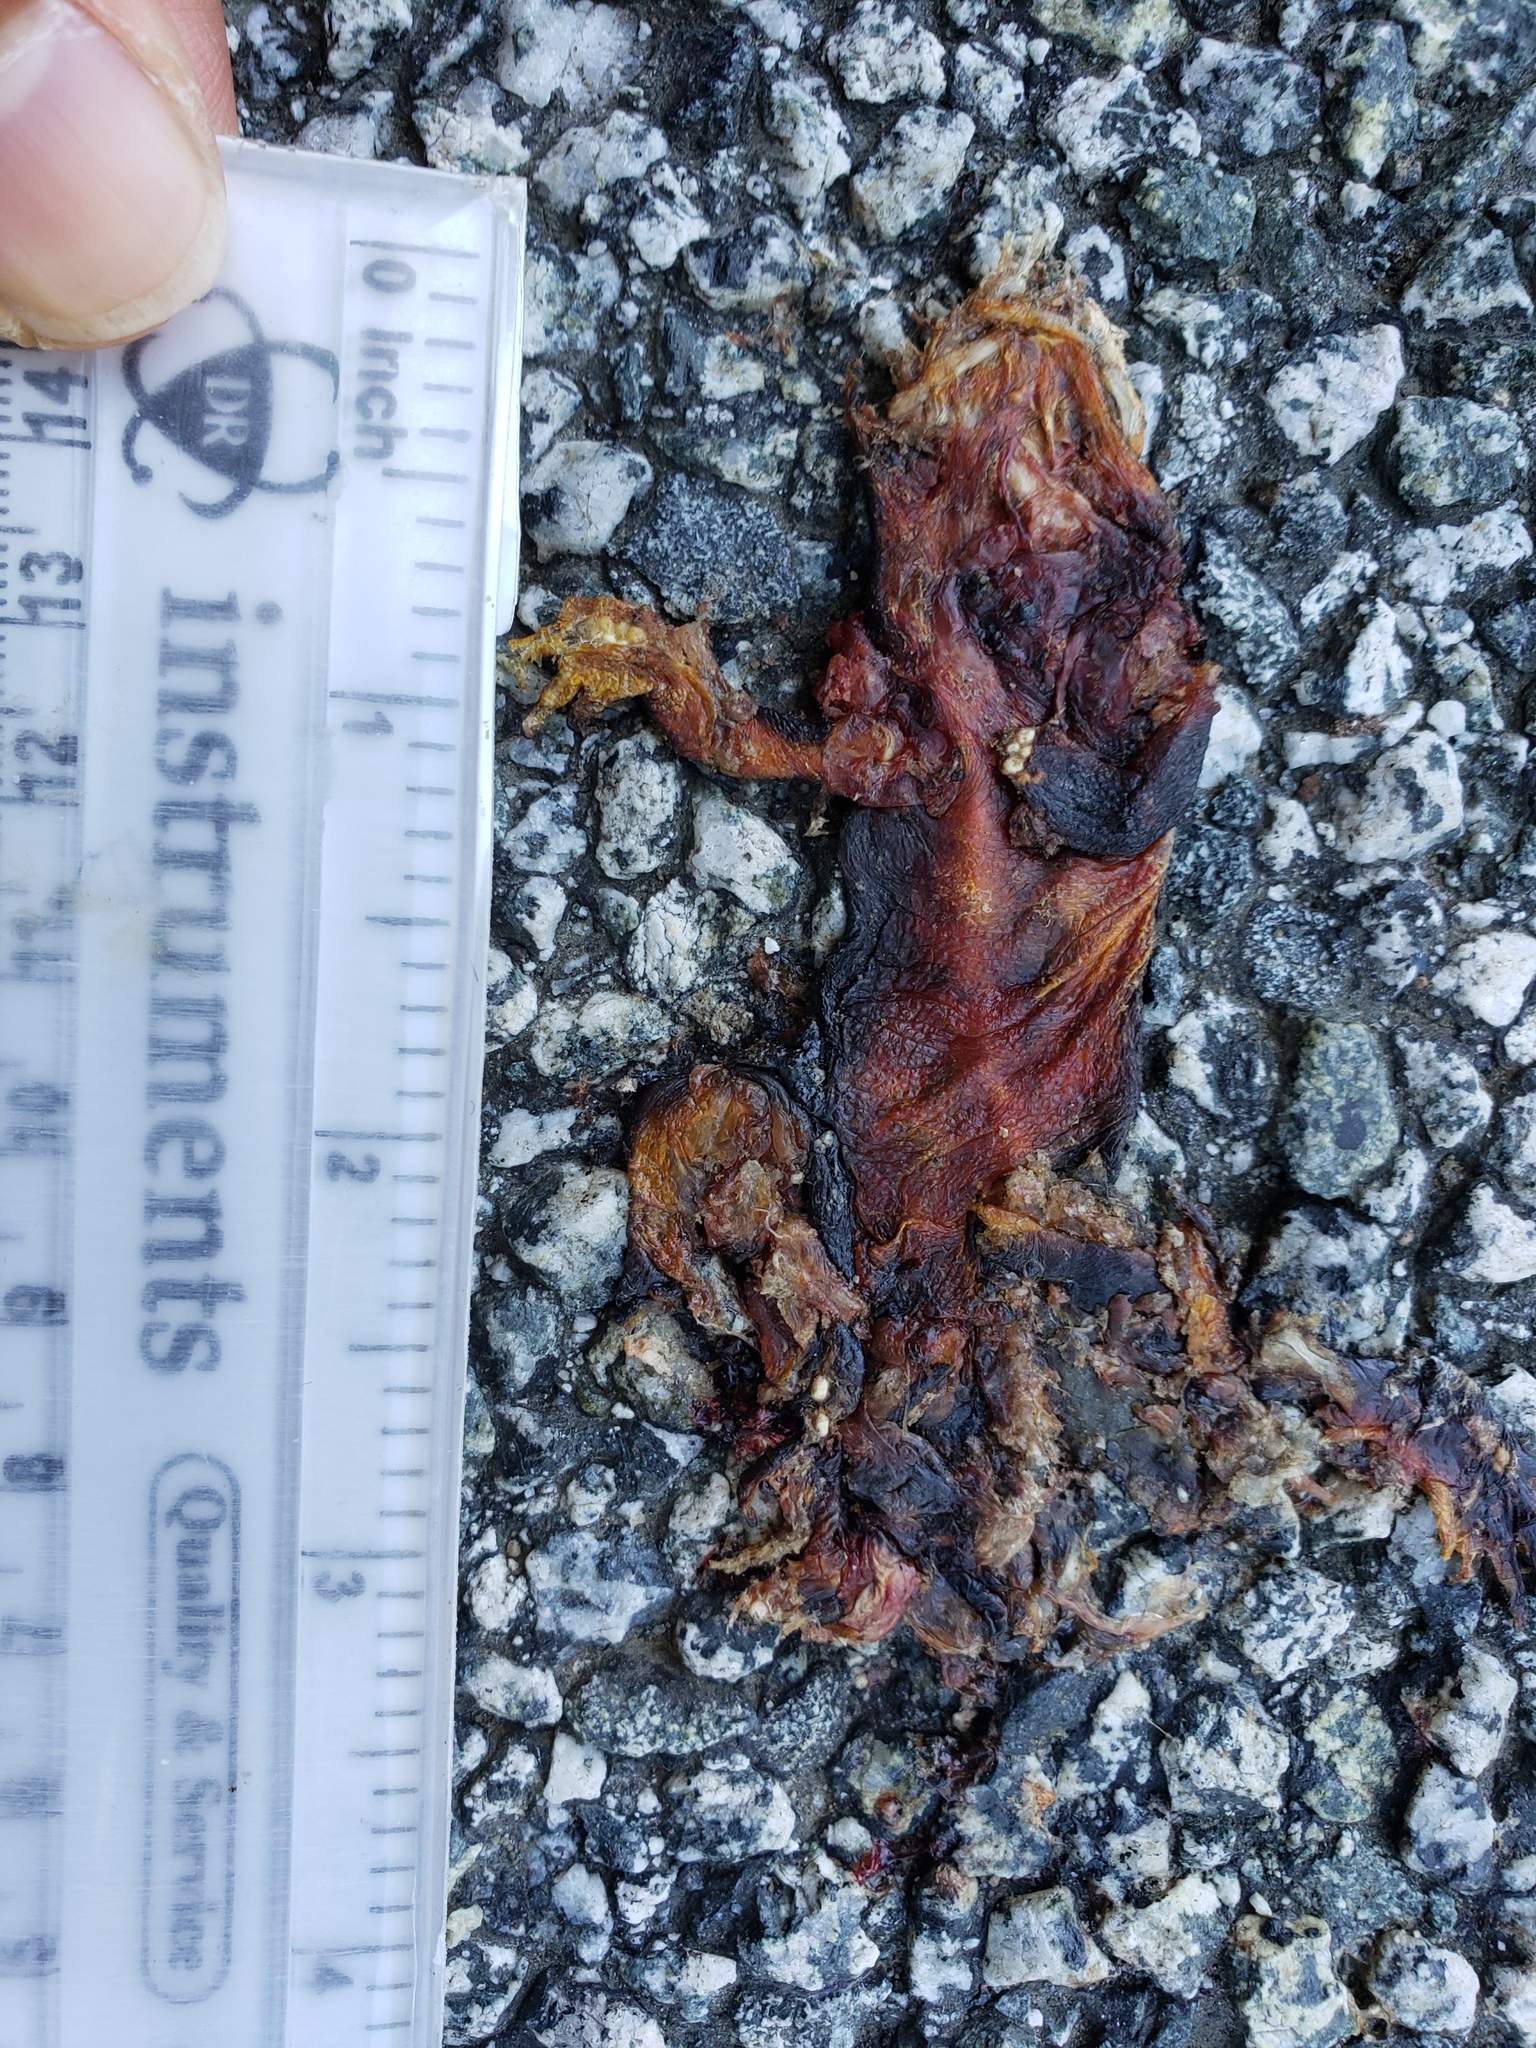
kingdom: Animalia
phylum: Chordata
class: Amphibia
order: Caudata
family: Salamandridae
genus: Taricha
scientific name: Taricha
